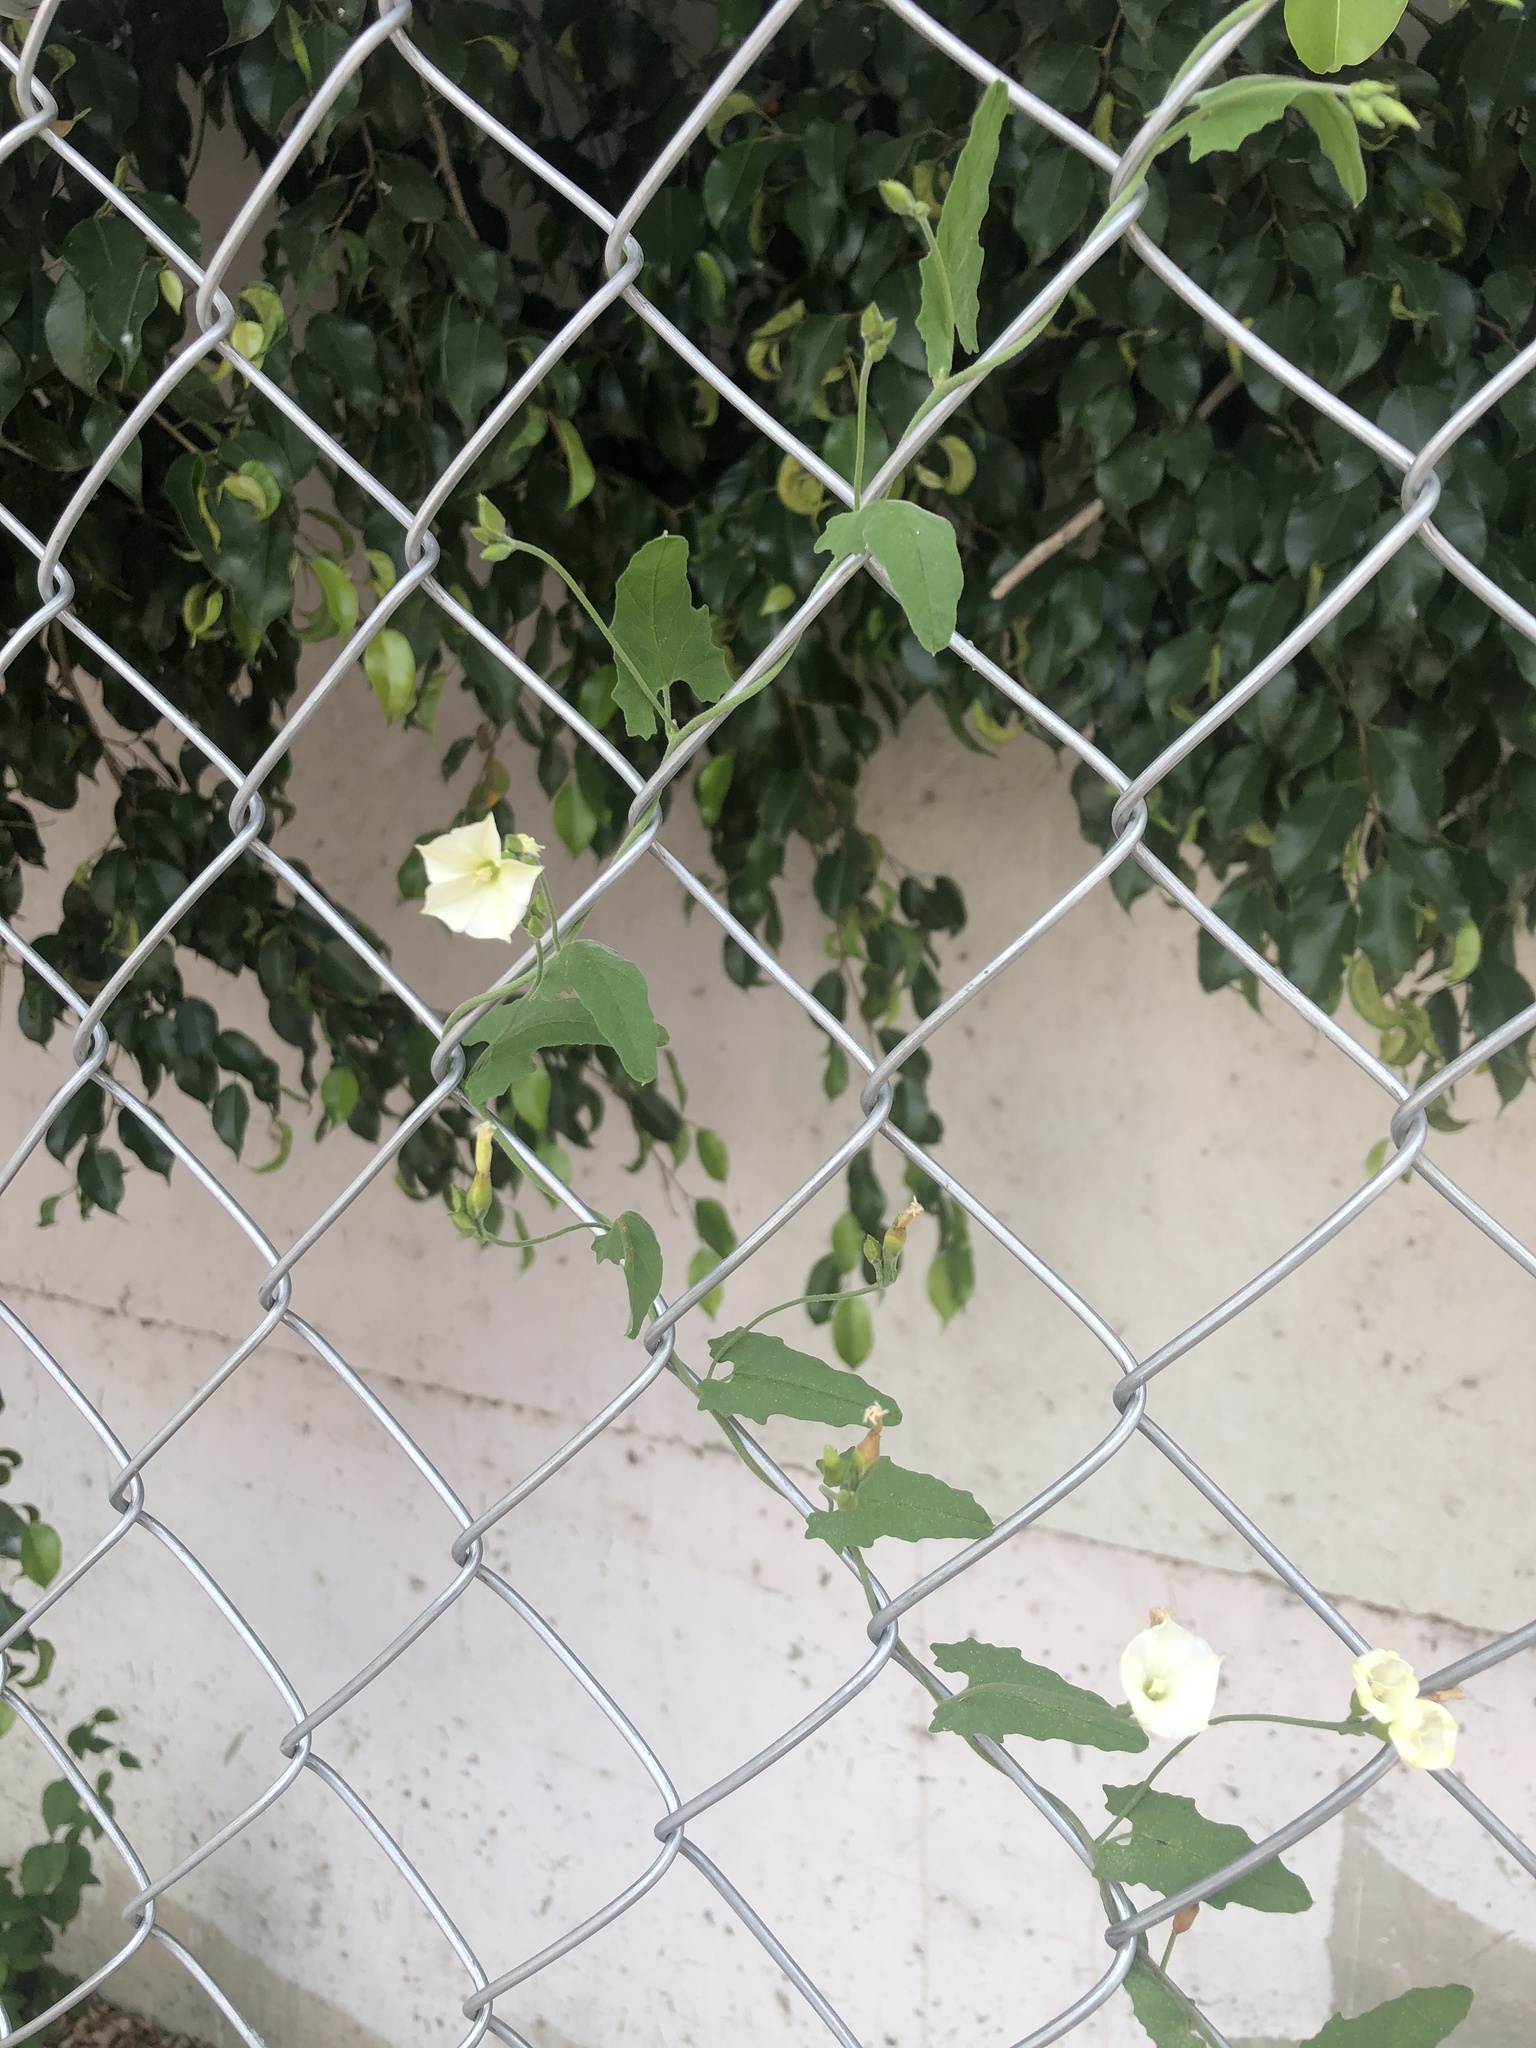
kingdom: Plantae
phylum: Tracheophyta
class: Magnoliopsida
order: Solanales
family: Convolvulaceae
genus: Convolvulus
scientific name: Convolvulus crenatifolius
